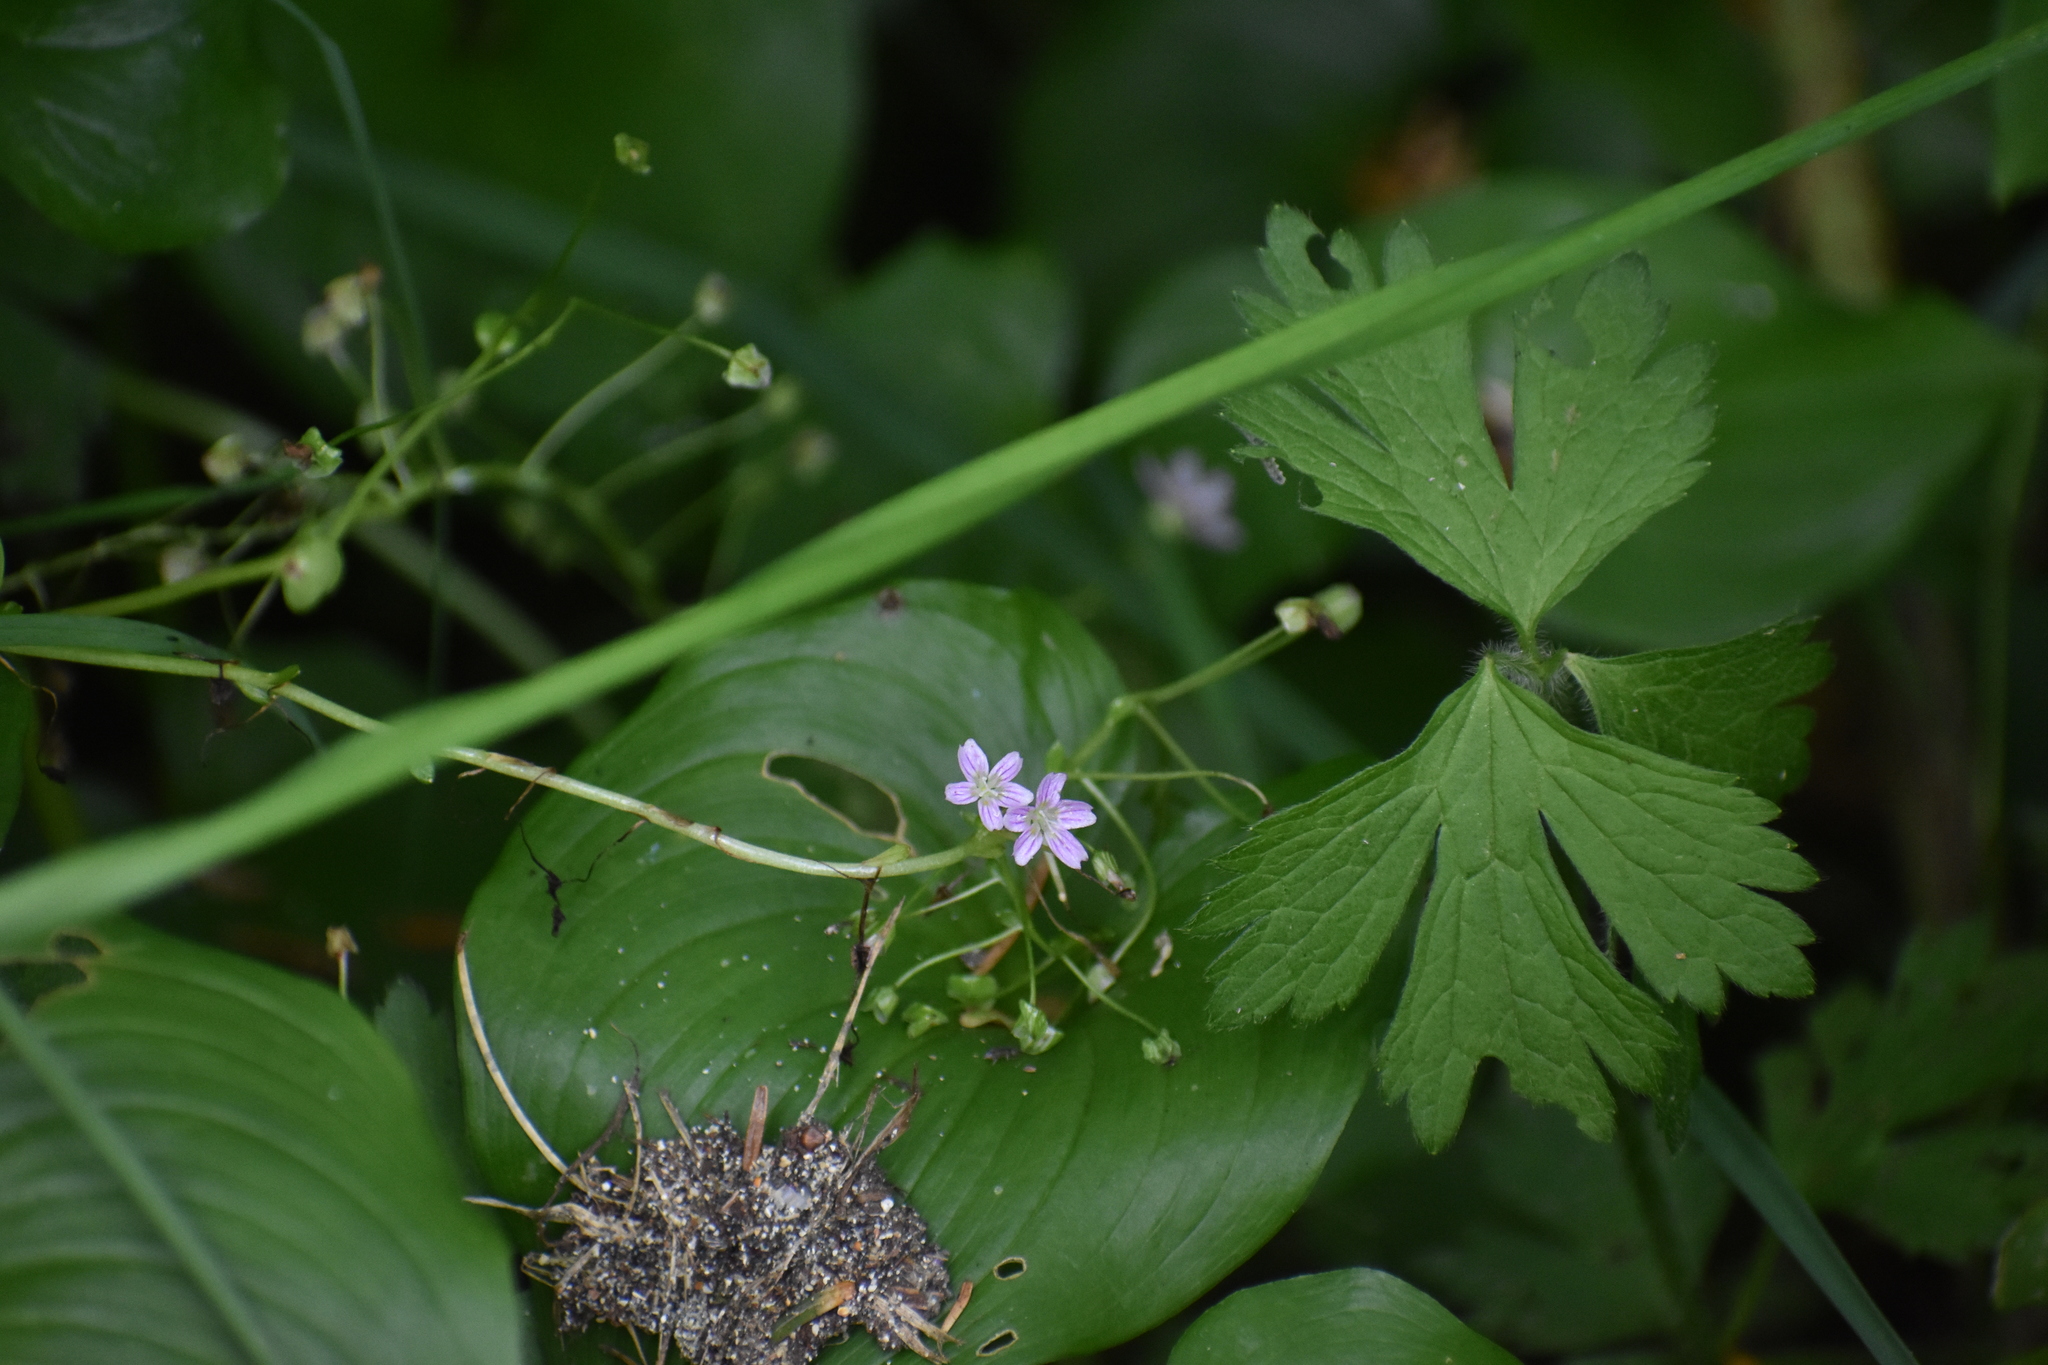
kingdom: Plantae
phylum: Tracheophyta
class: Magnoliopsida
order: Caryophyllales
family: Montiaceae
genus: Claytonia
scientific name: Claytonia sibirica
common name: Pink purslane
